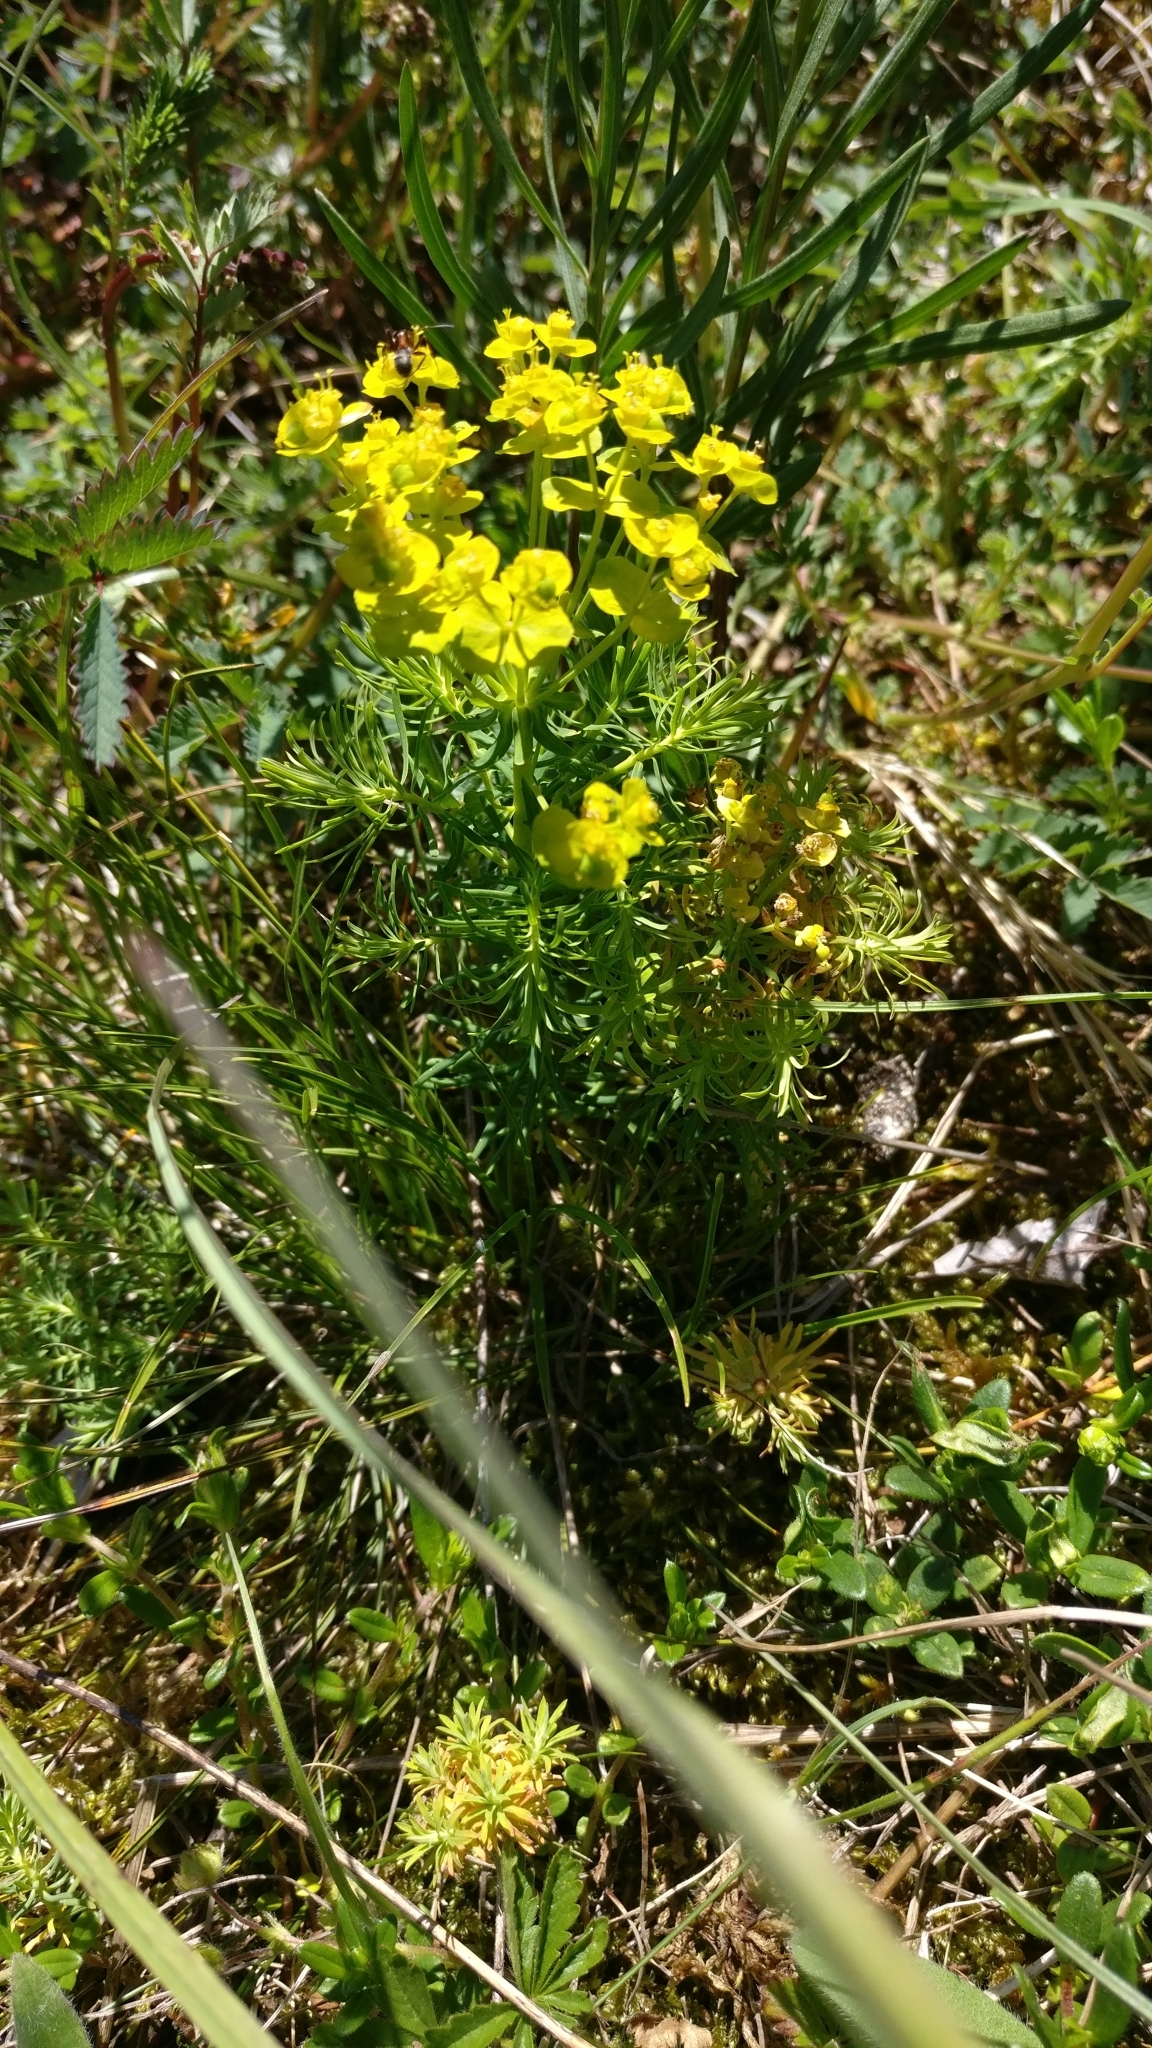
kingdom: Plantae
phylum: Tracheophyta
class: Magnoliopsida
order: Malpighiales
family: Euphorbiaceae
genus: Euphorbia
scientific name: Euphorbia cyparissias
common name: Cypress spurge
